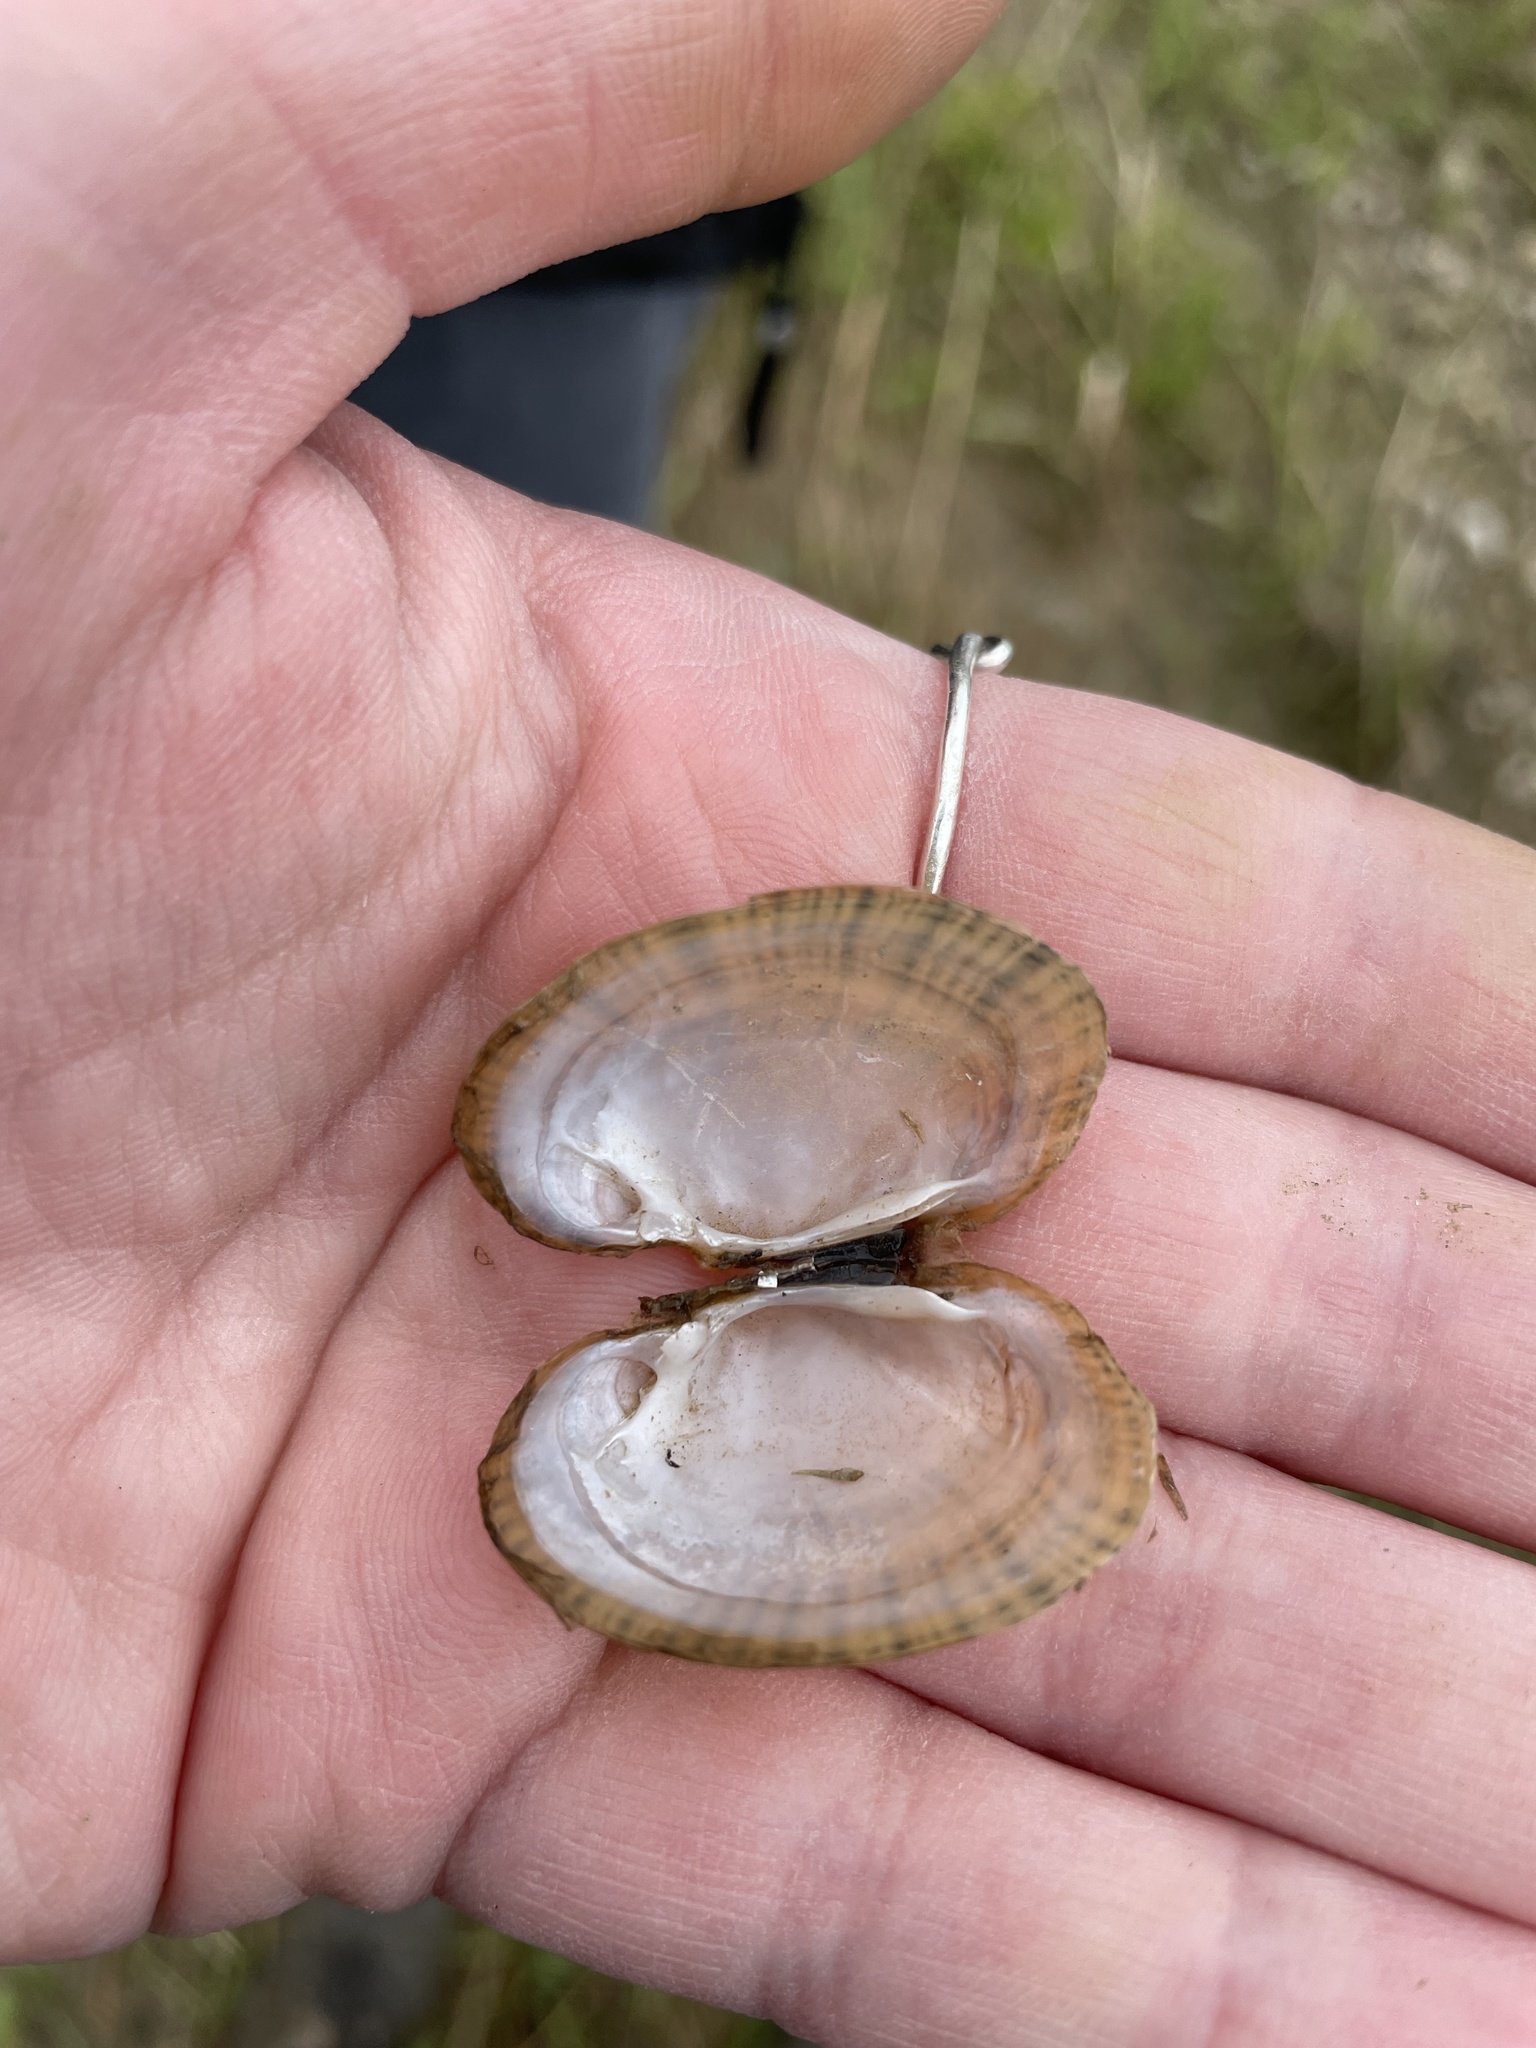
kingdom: Animalia
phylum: Mollusca
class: Bivalvia
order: Unionida
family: Unionidae
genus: Lampsilis
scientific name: Lampsilis fasciola
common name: Wavyrayed lampmussel
